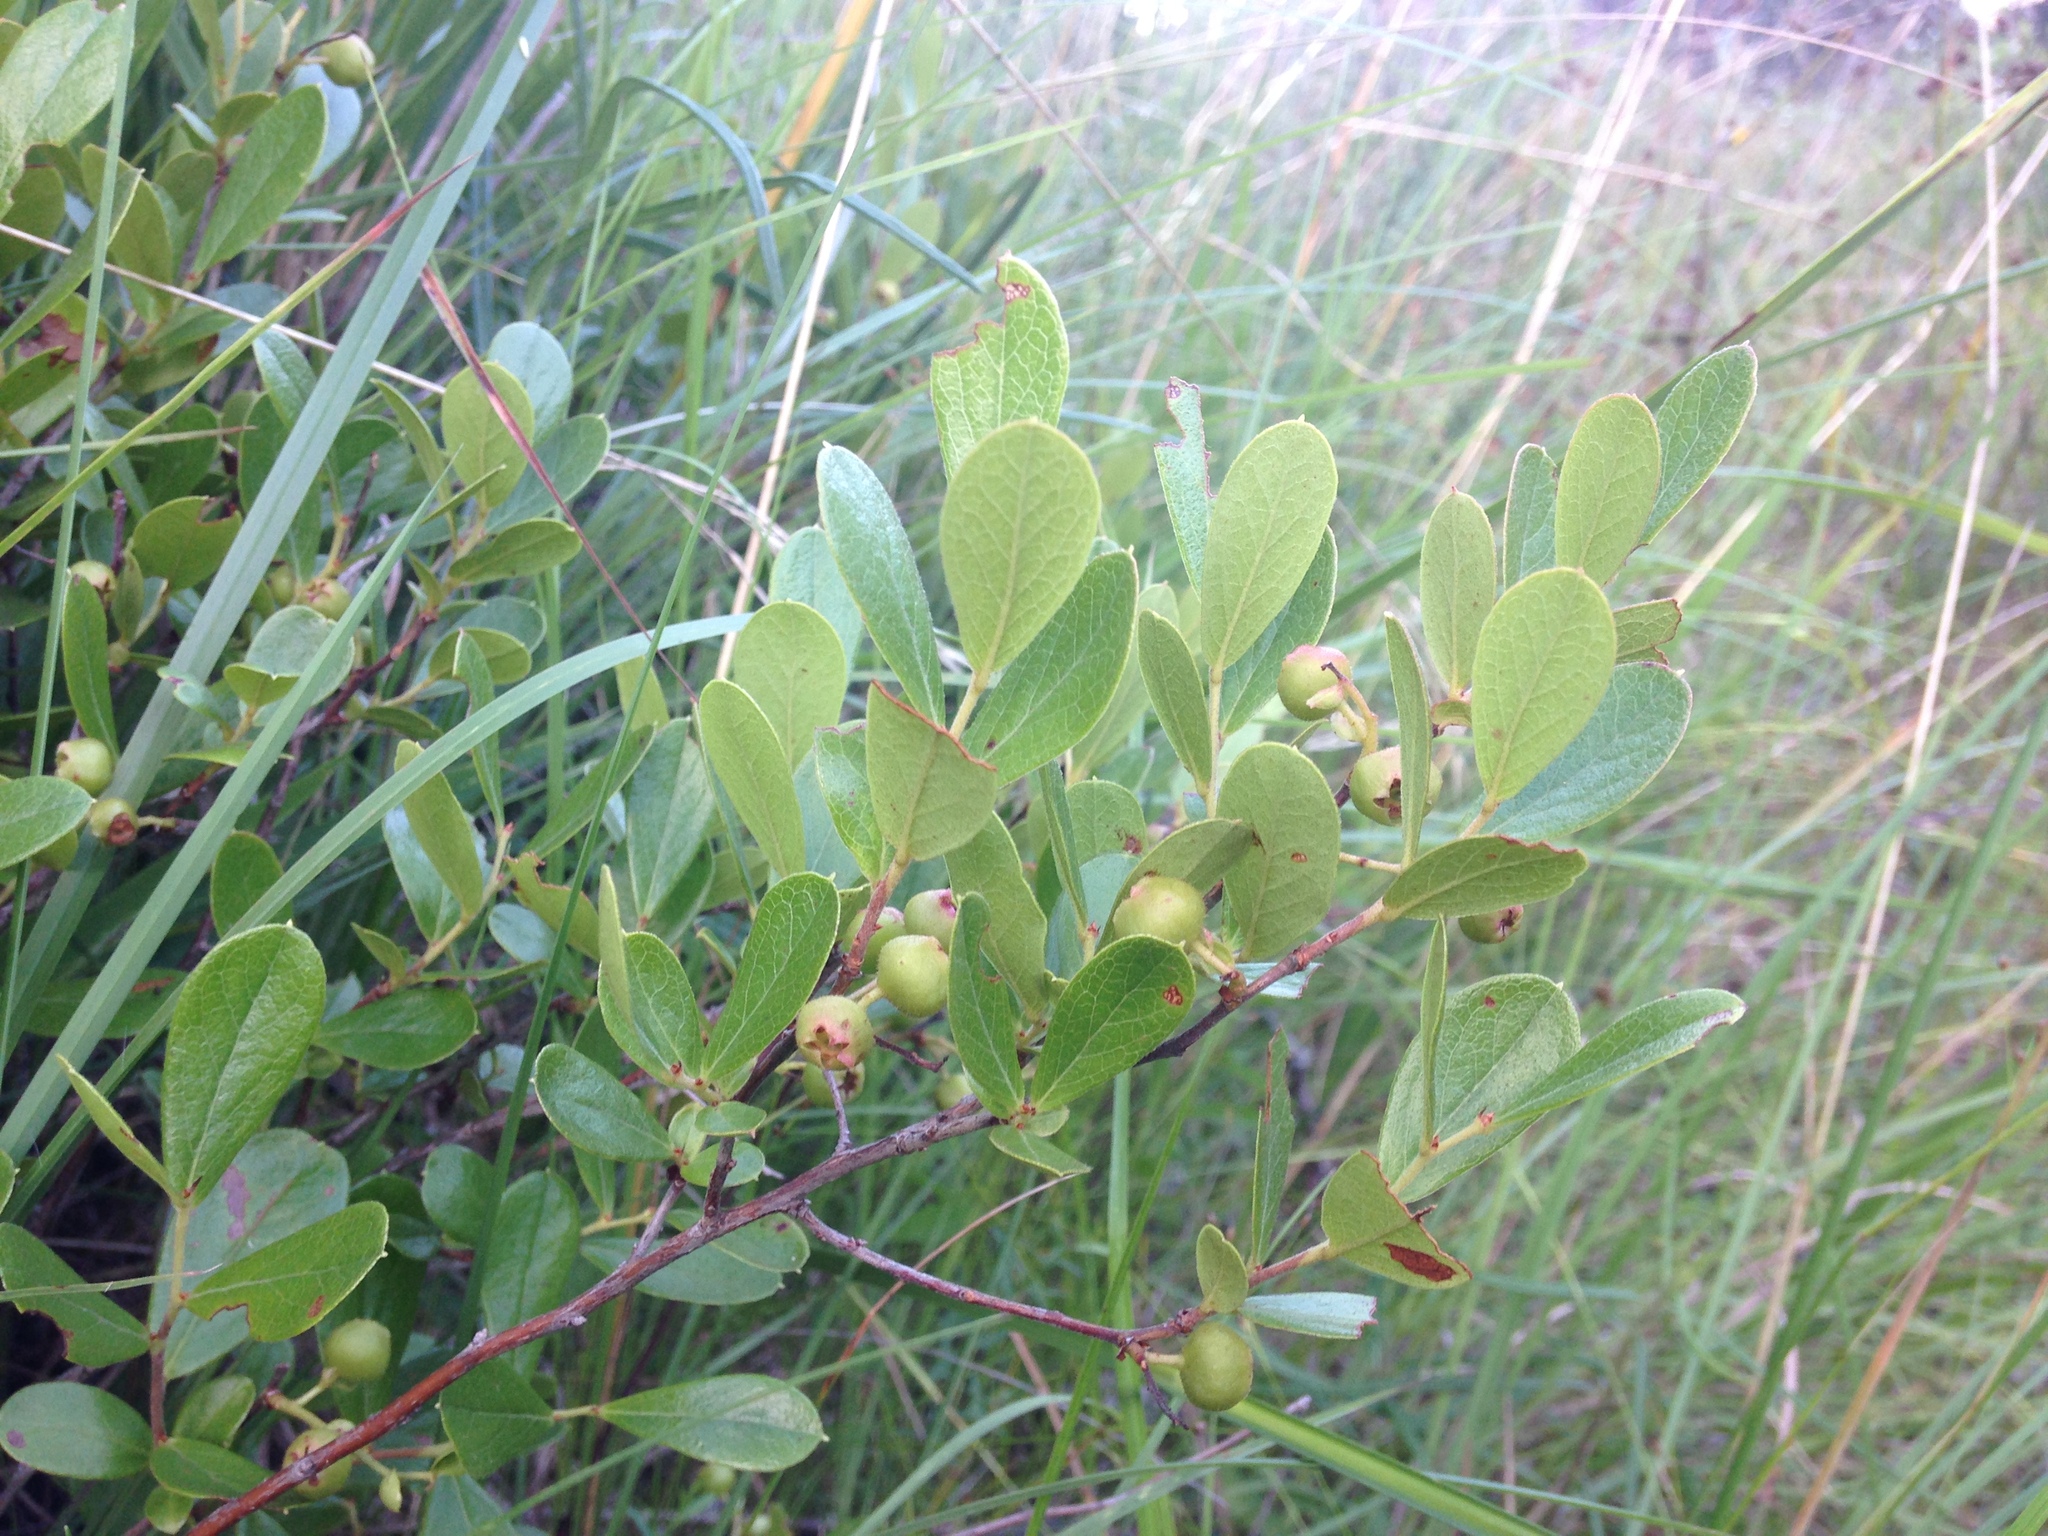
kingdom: Plantae
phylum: Tracheophyta
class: Magnoliopsida
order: Rosales
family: Rosaceae
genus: Aronia
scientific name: Aronia arbutifolia
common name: Red chokeberry
